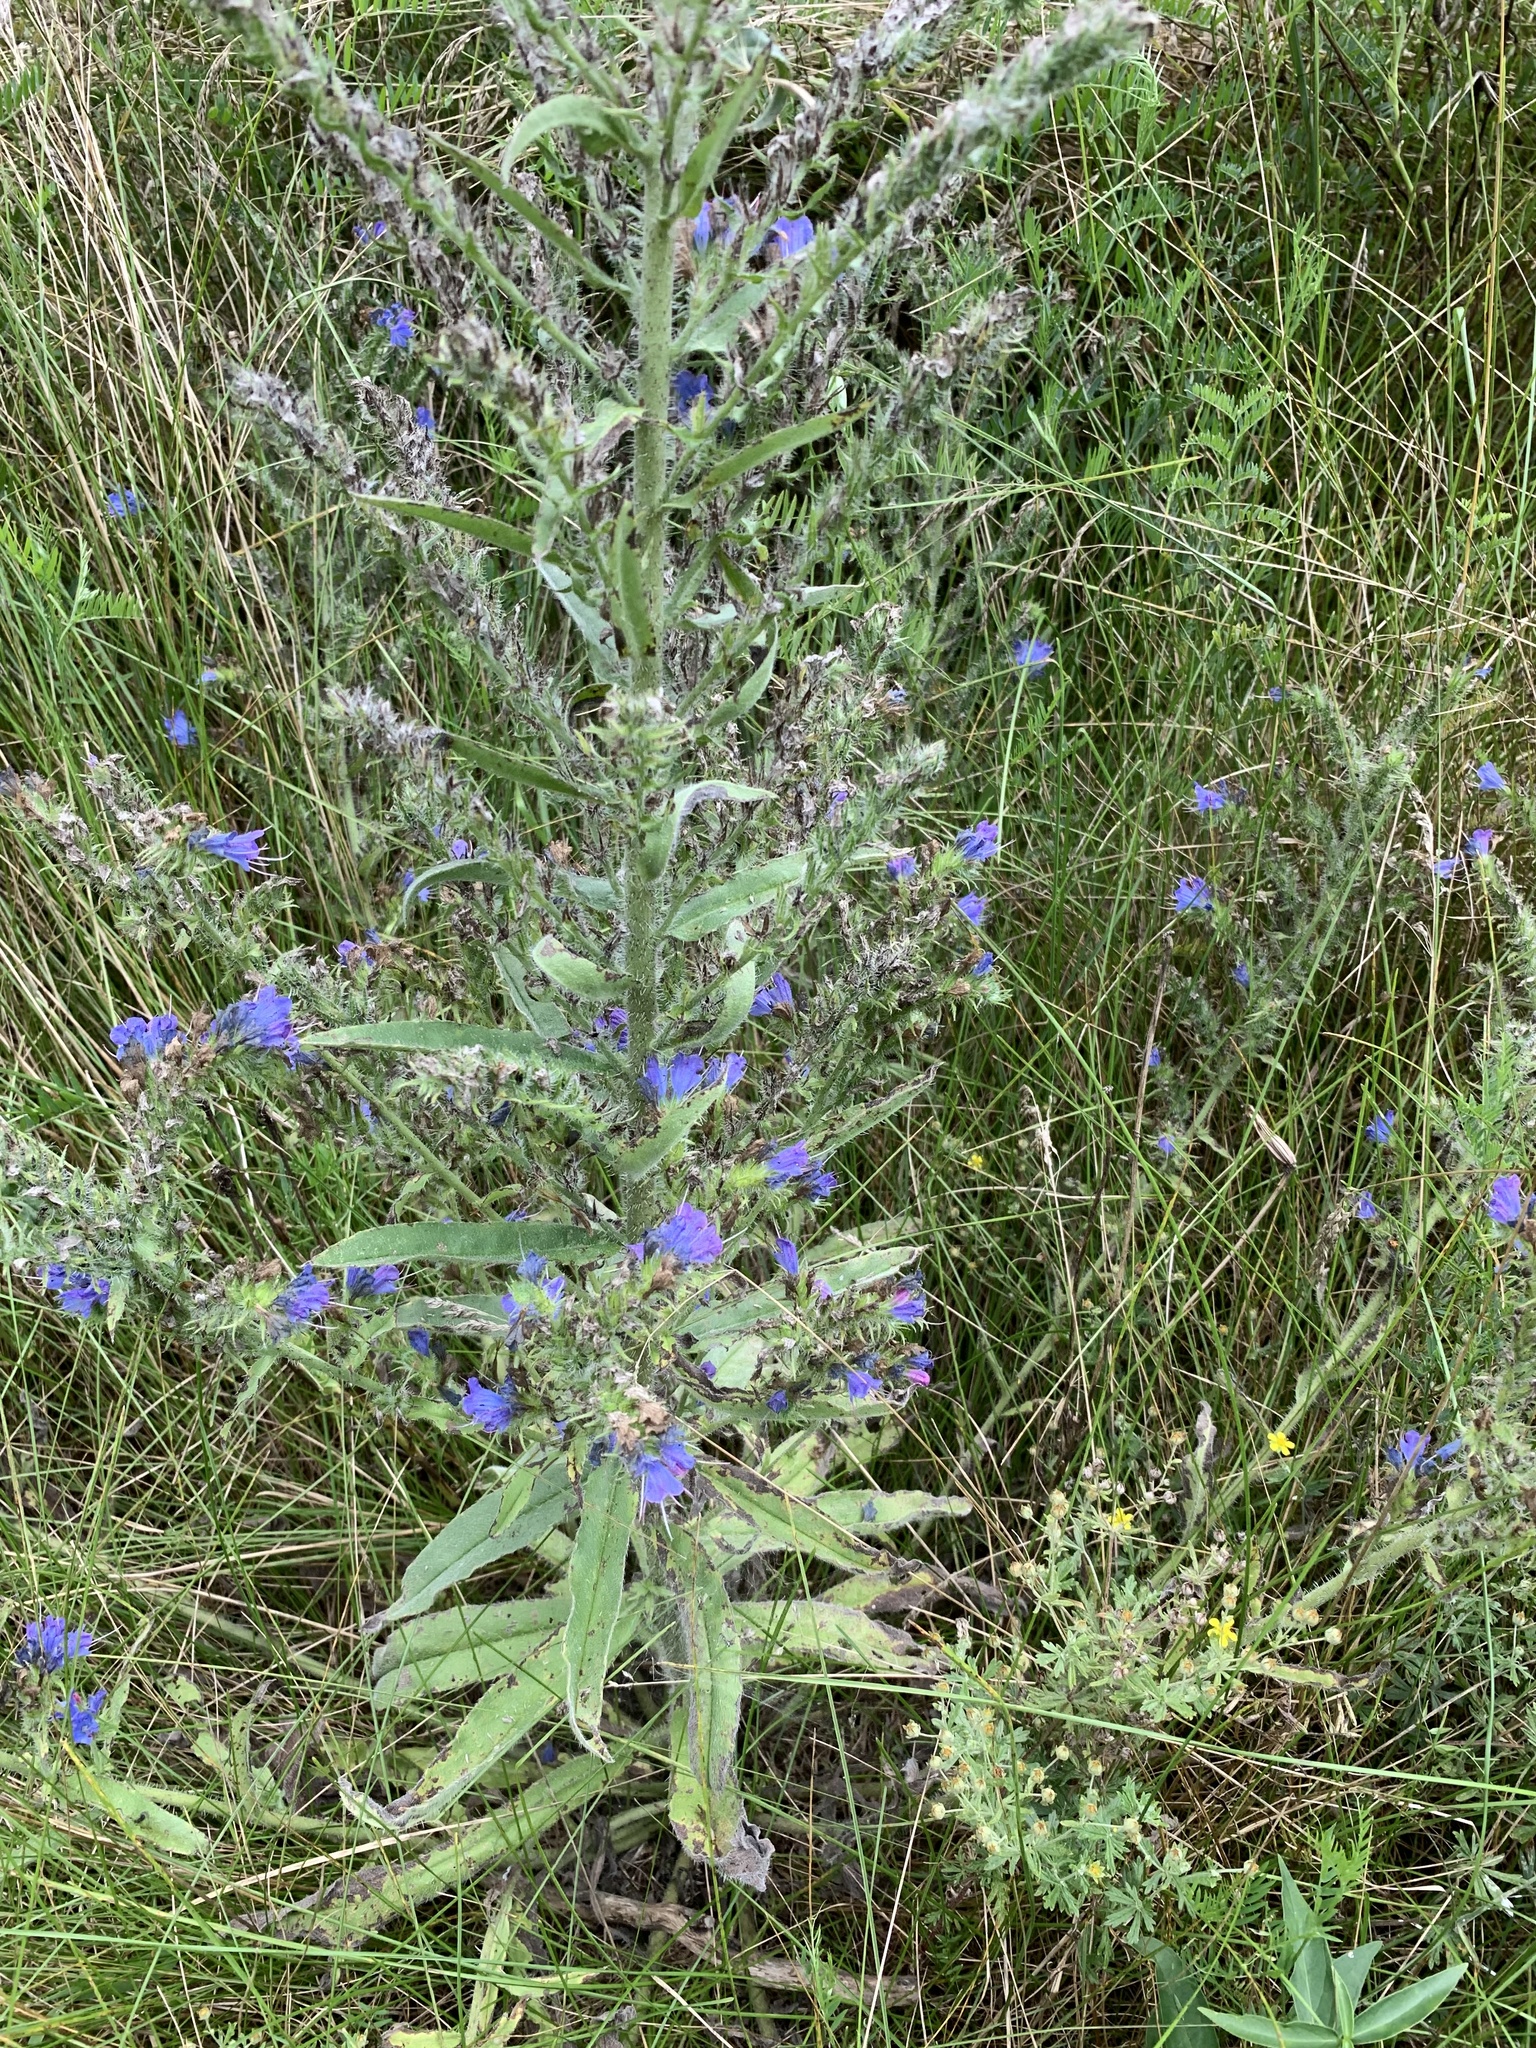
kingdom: Plantae
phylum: Tracheophyta
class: Magnoliopsida
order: Boraginales
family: Boraginaceae
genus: Echium
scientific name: Echium vulgare
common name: Common viper's bugloss
